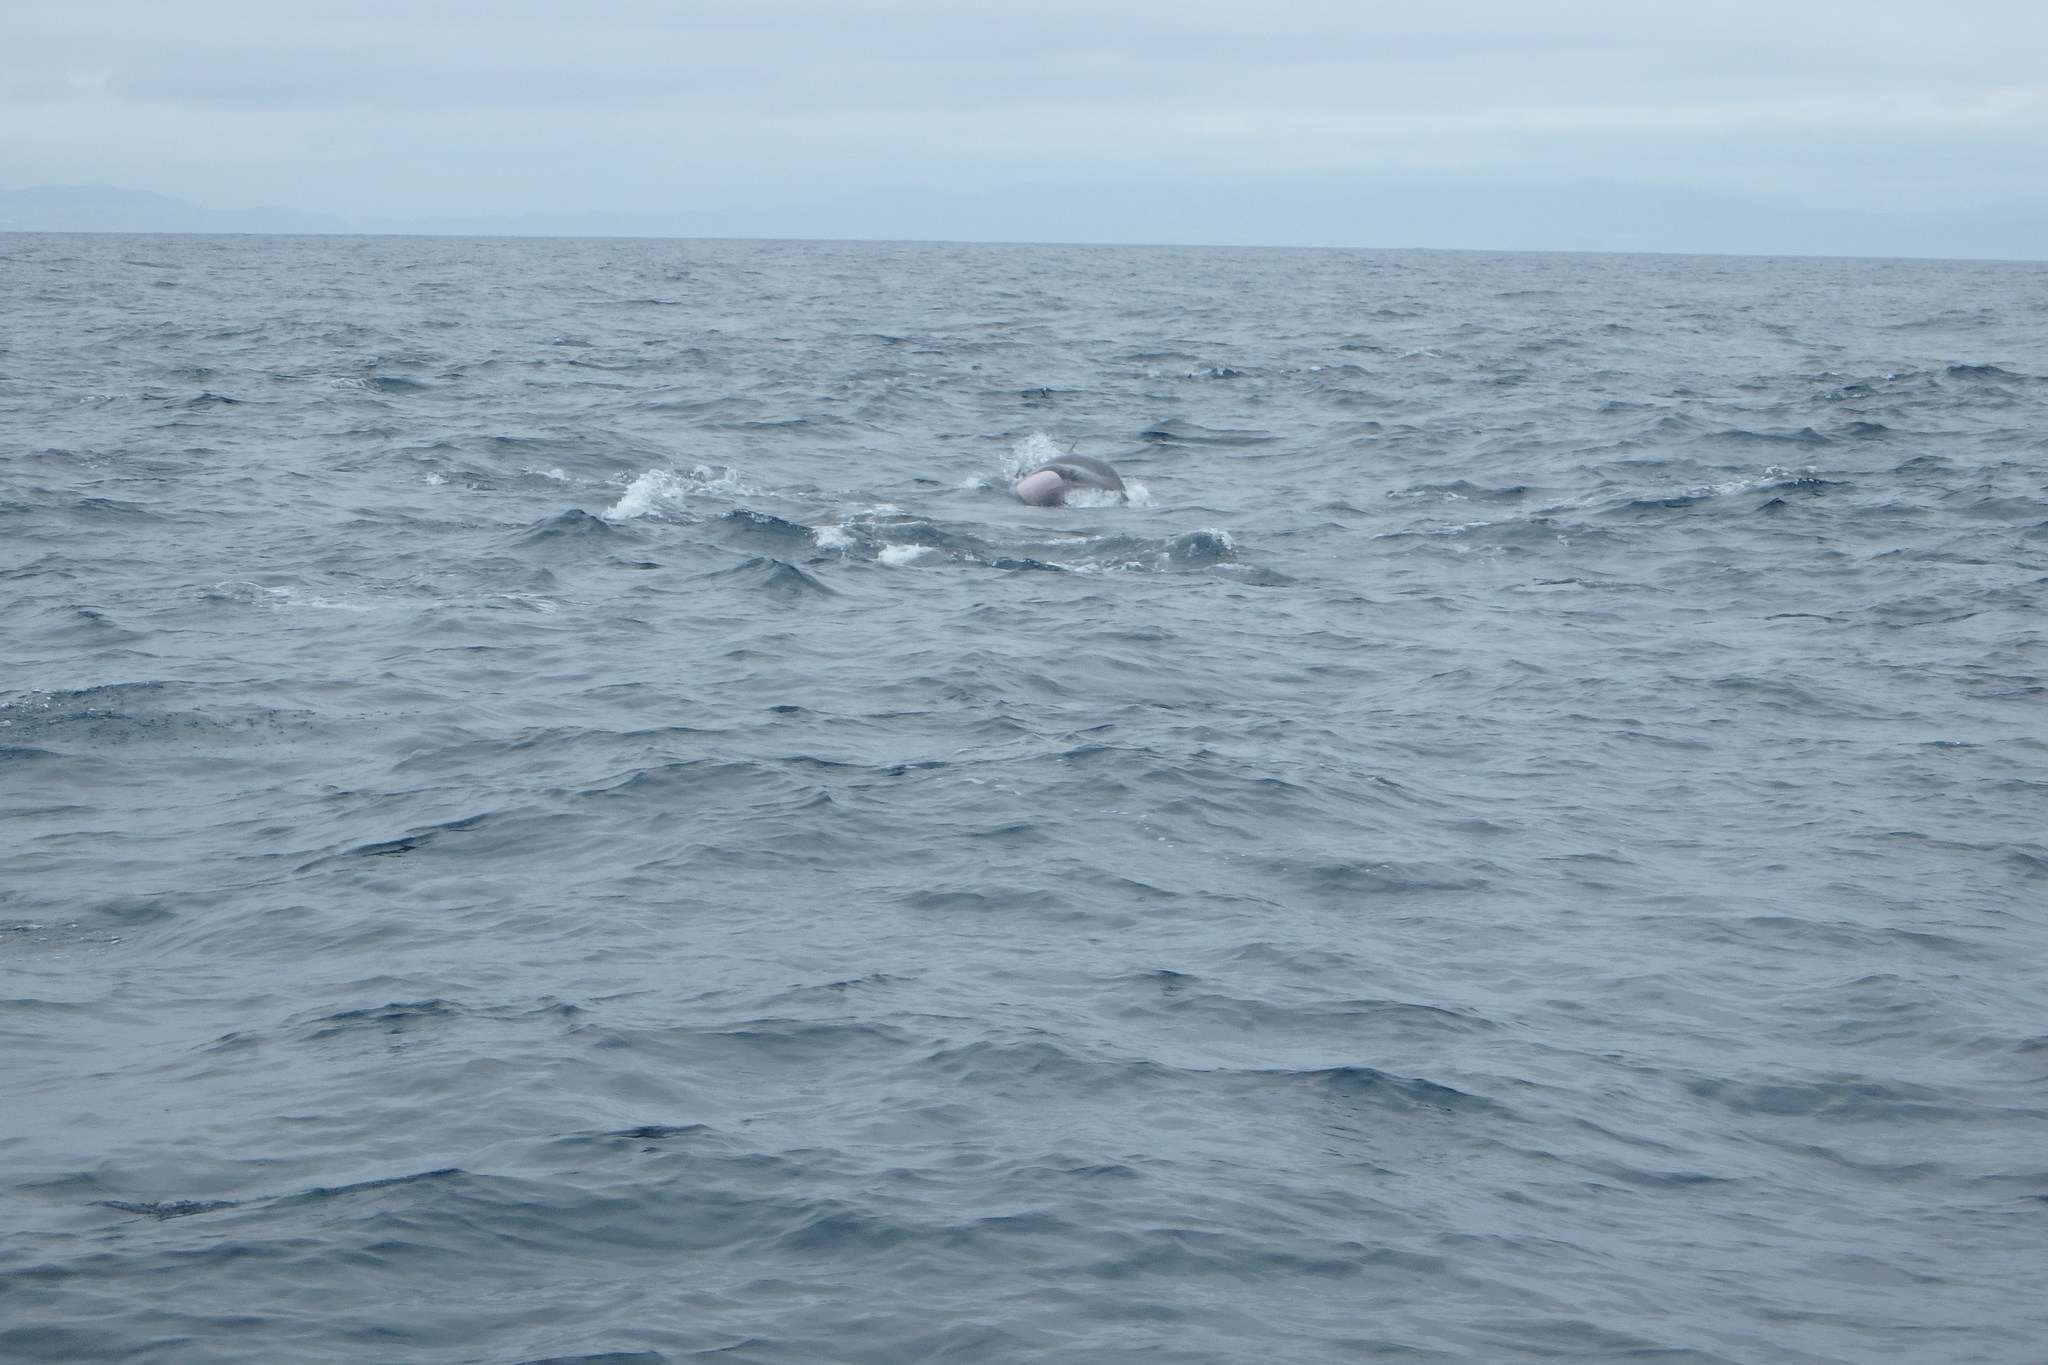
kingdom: Animalia
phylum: Chordata
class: Mammalia
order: Cetacea
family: Delphinidae
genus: Stenella
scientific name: Stenella coeruleoalba
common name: Striped dolphin
